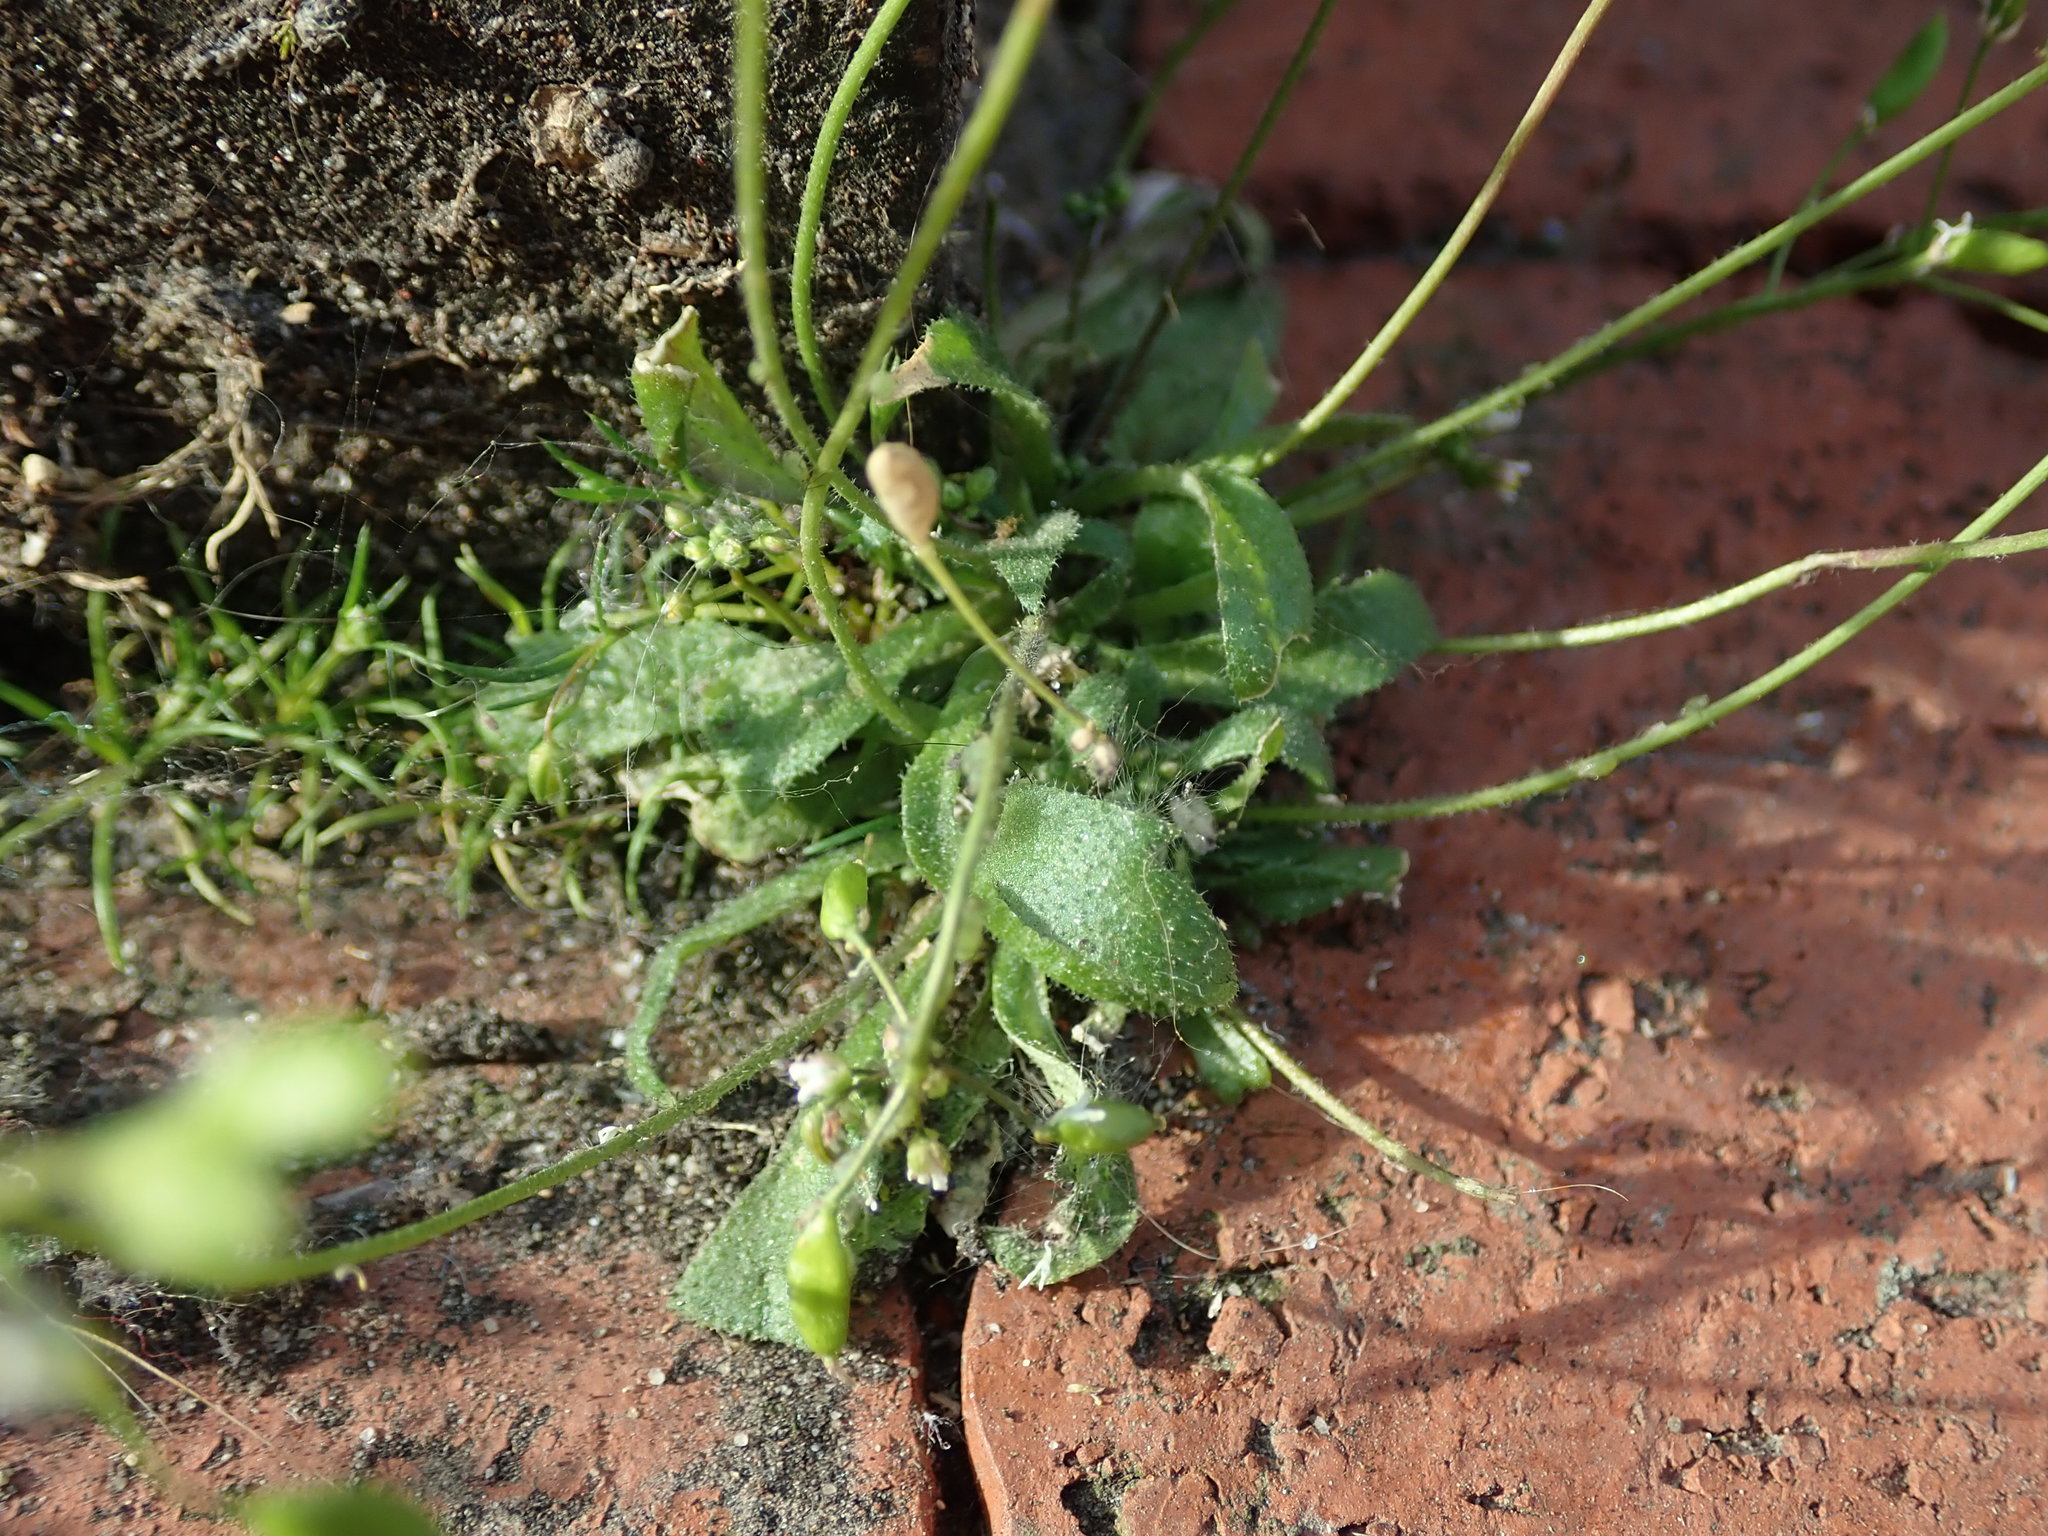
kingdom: Plantae
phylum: Tracheophyta
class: Magnoliopsida
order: Brassicales
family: Brassicaceae
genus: Draba
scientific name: Draba verna
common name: Spring draba
